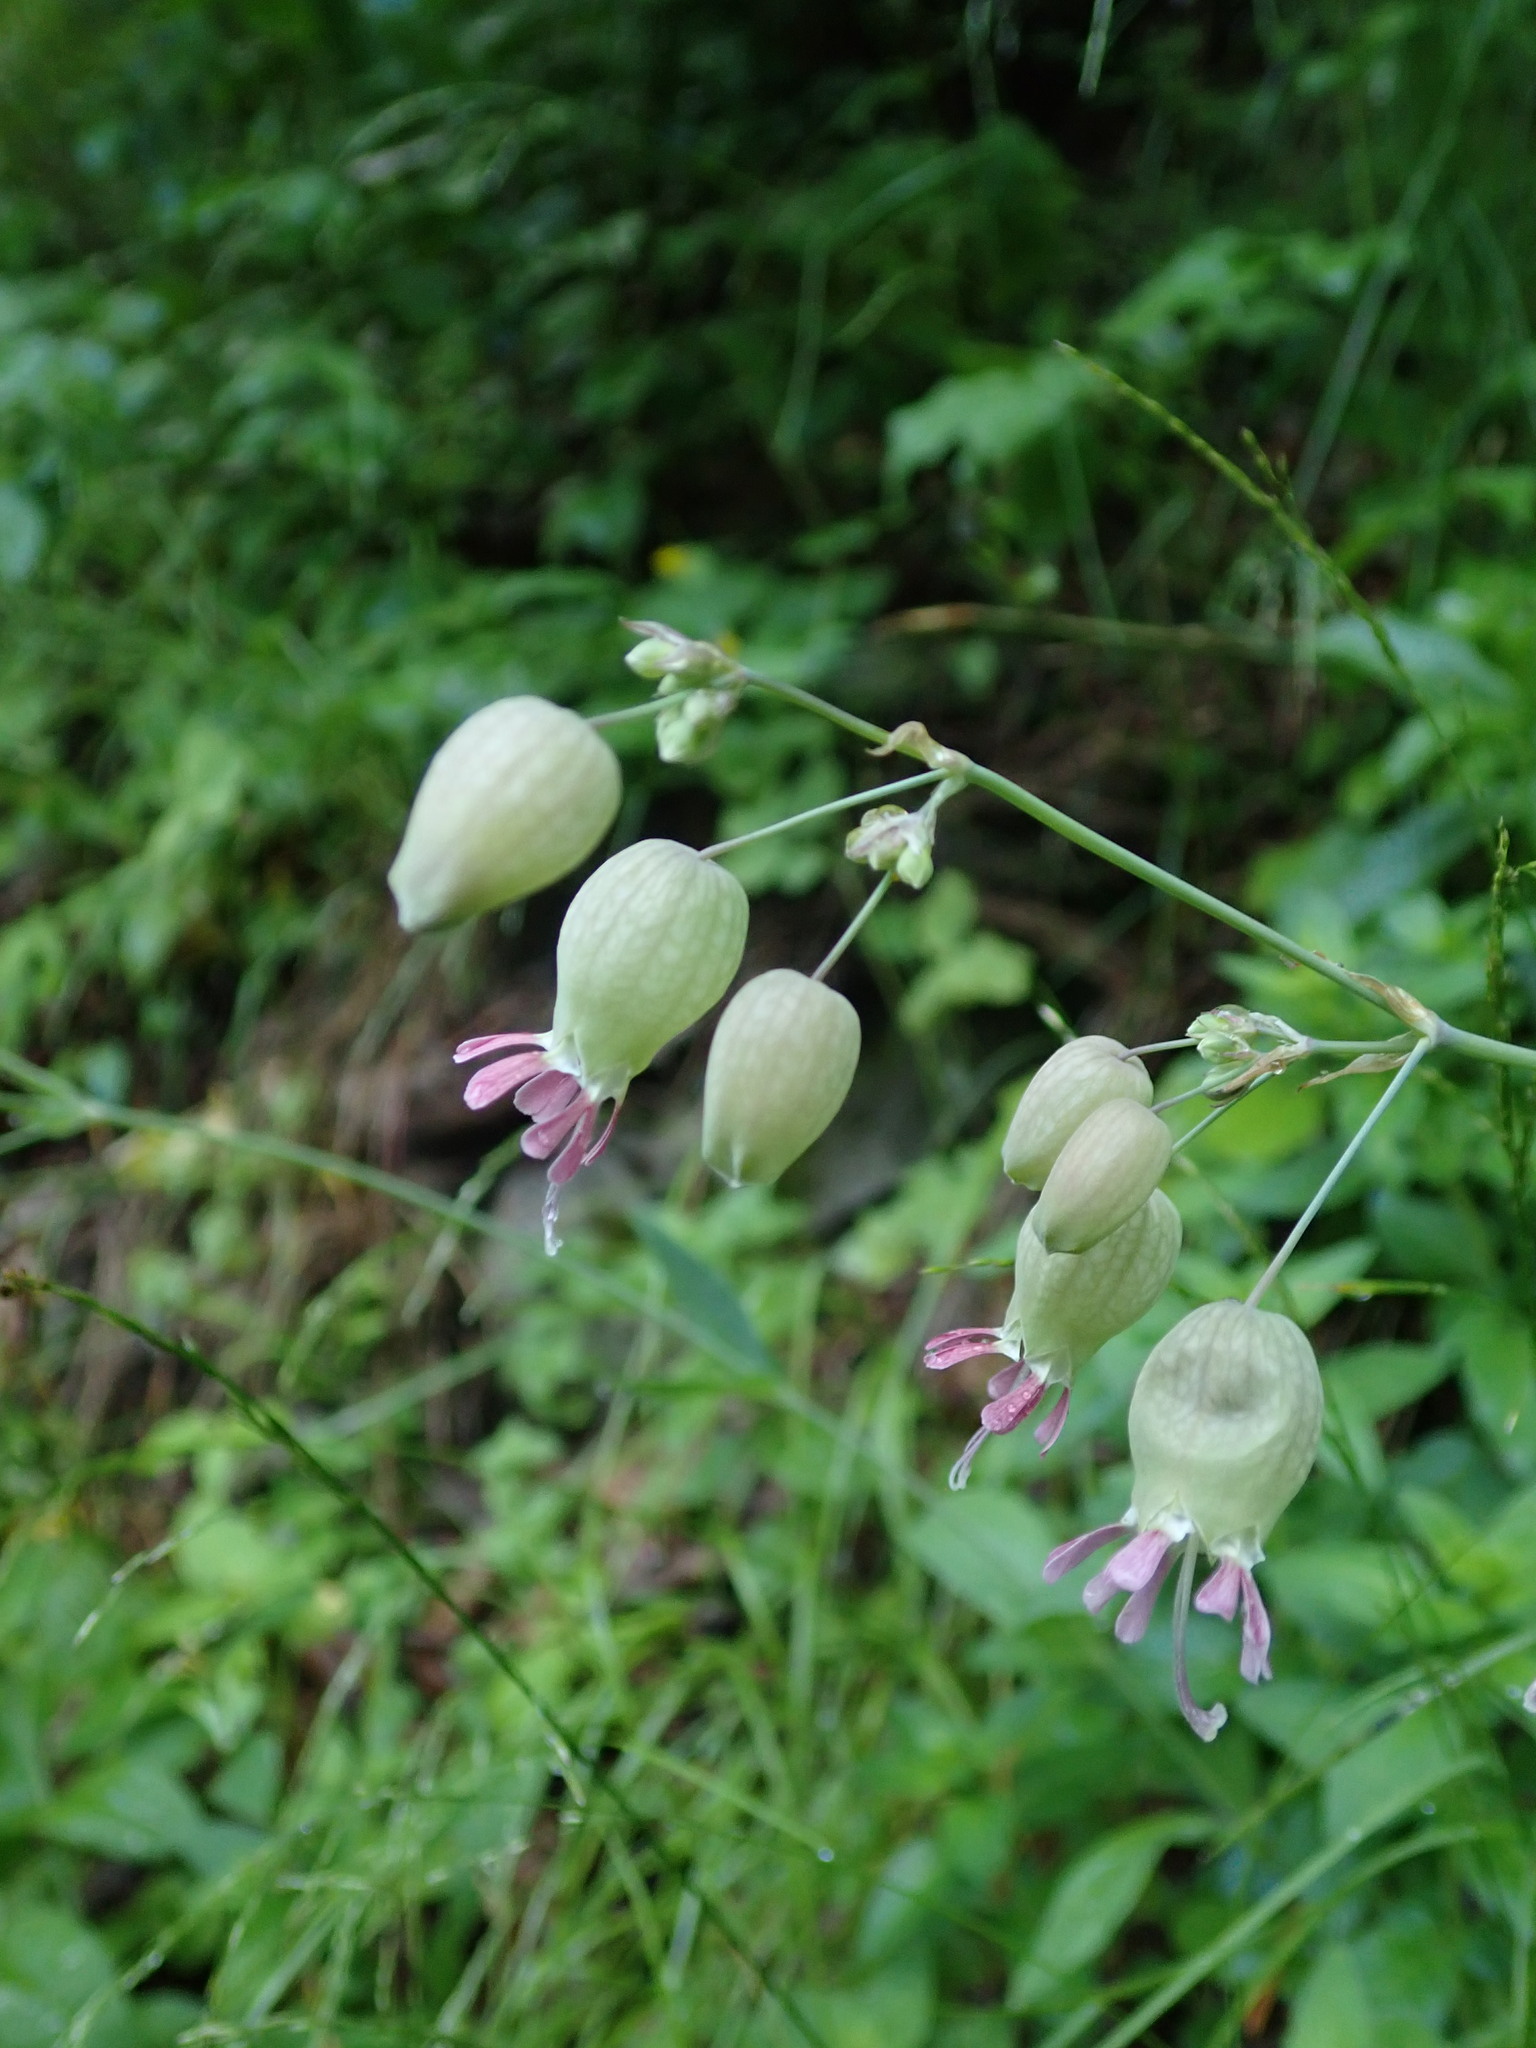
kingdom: Plantae
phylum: Tracheophyta
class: Magnoliopsida
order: Caryophyllales
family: Caryophyllaceae
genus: Silene
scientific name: Silene vulgaris
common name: Bladder campion
